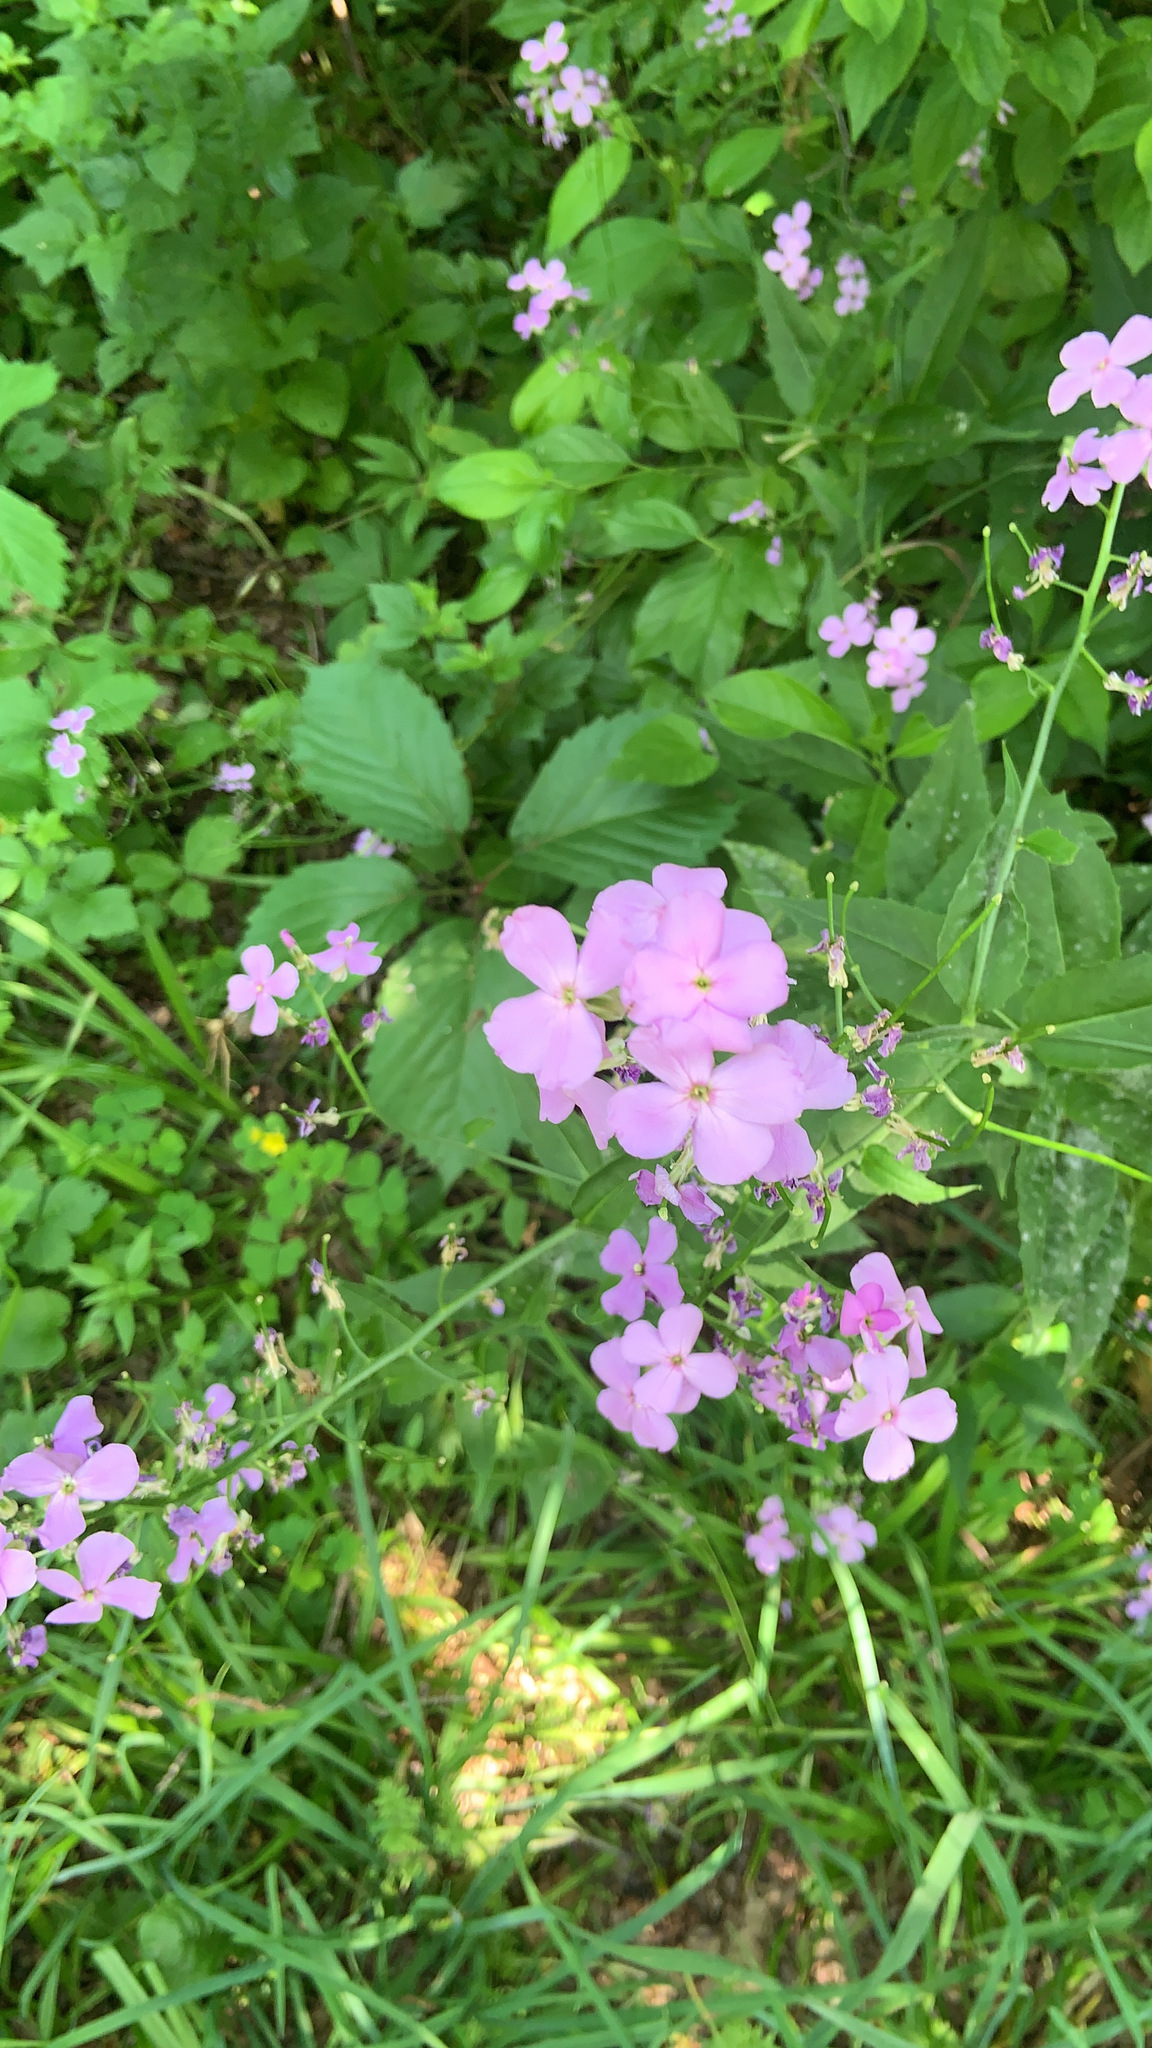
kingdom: Plantae
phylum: Tracheophyta
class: Magnoliopsida
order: Brassicales
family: Brassicaceae
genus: Hesperis
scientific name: Hesperis matronalis
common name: Dame's-violet
